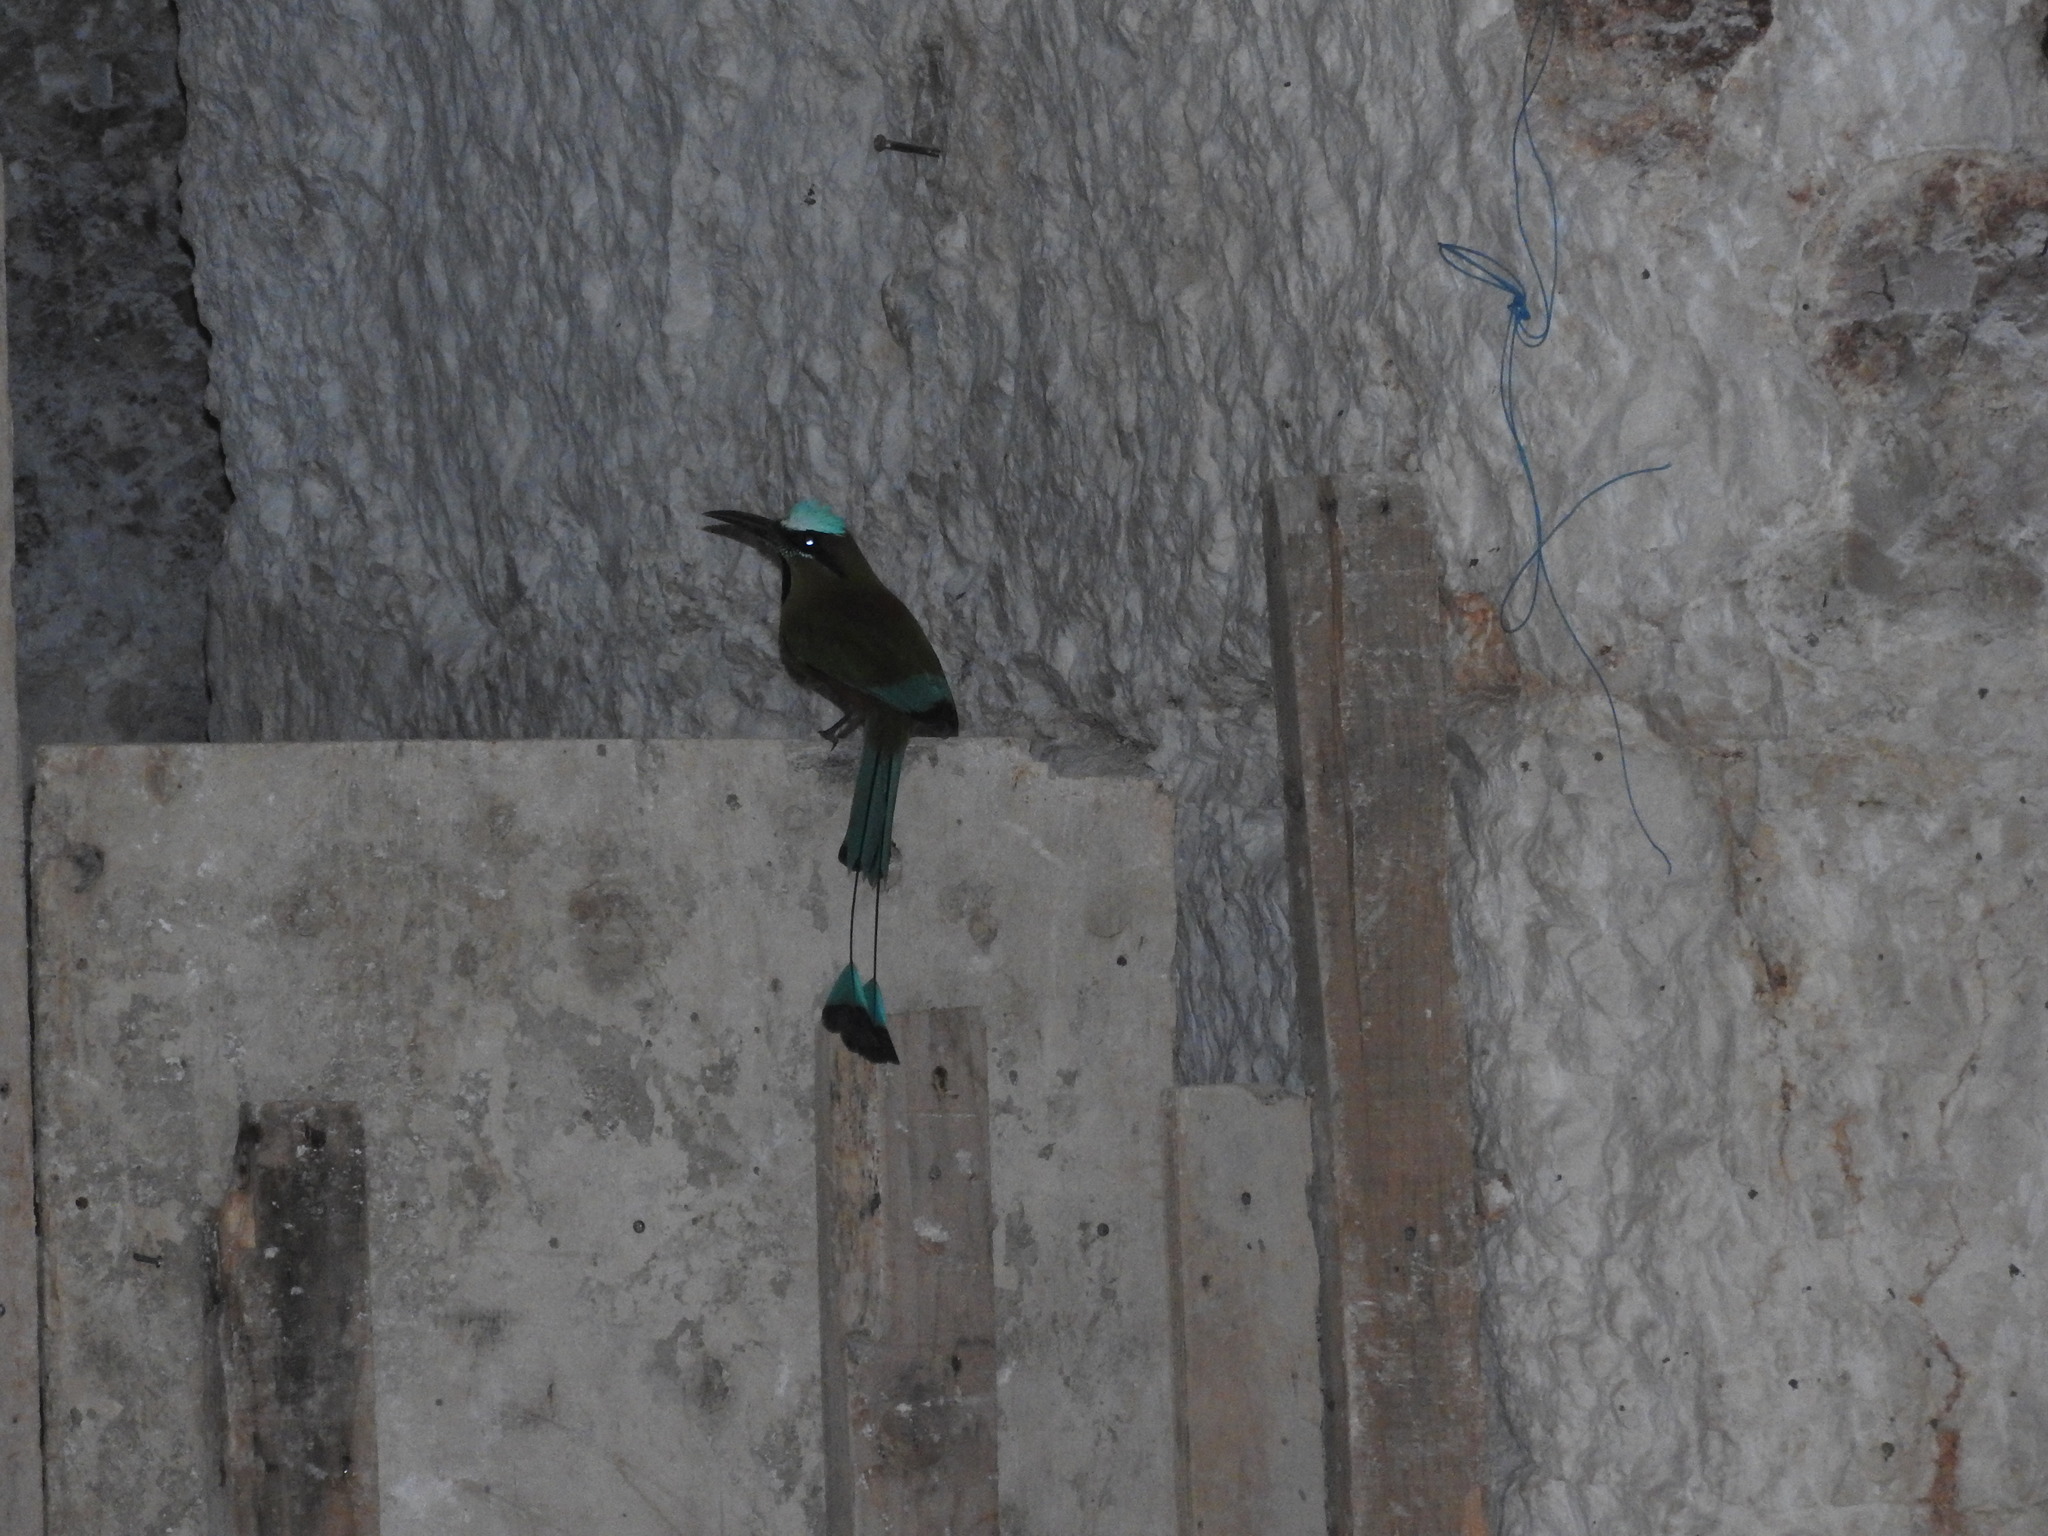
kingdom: Animalia
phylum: Chordata
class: Aves
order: Coraciiformes
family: Momotidae
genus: Eumomota
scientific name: Eumomota superciliosa
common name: Turquoise-browed motmot
